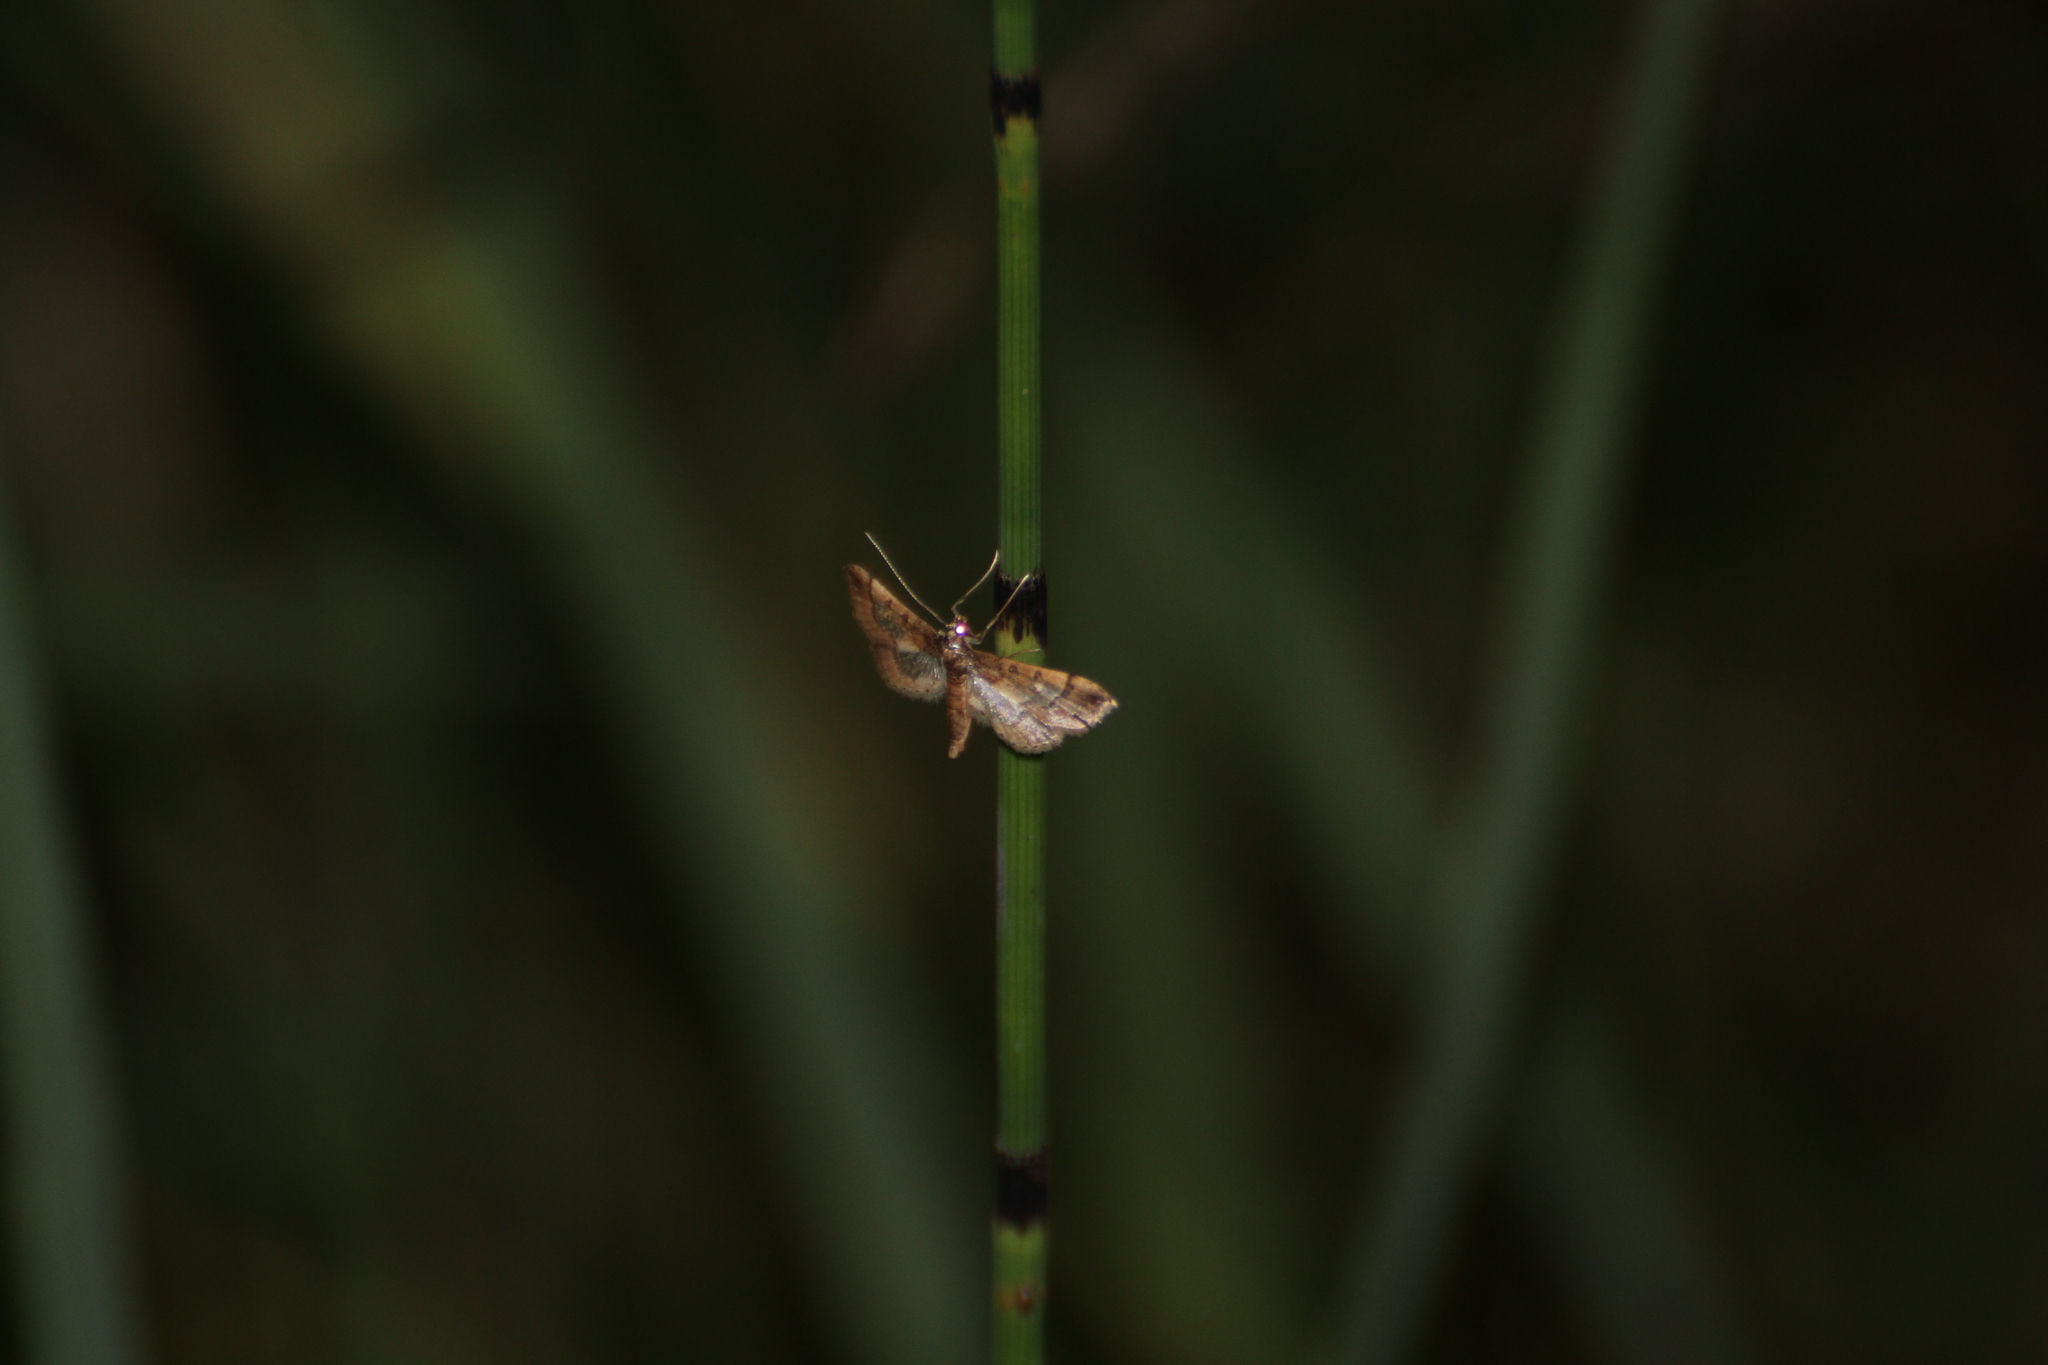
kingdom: Animalia
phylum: Arthropoda
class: Insecta
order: Lepidoptera
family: Crambidae
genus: Hydriris
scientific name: Hydriris ornatalis
